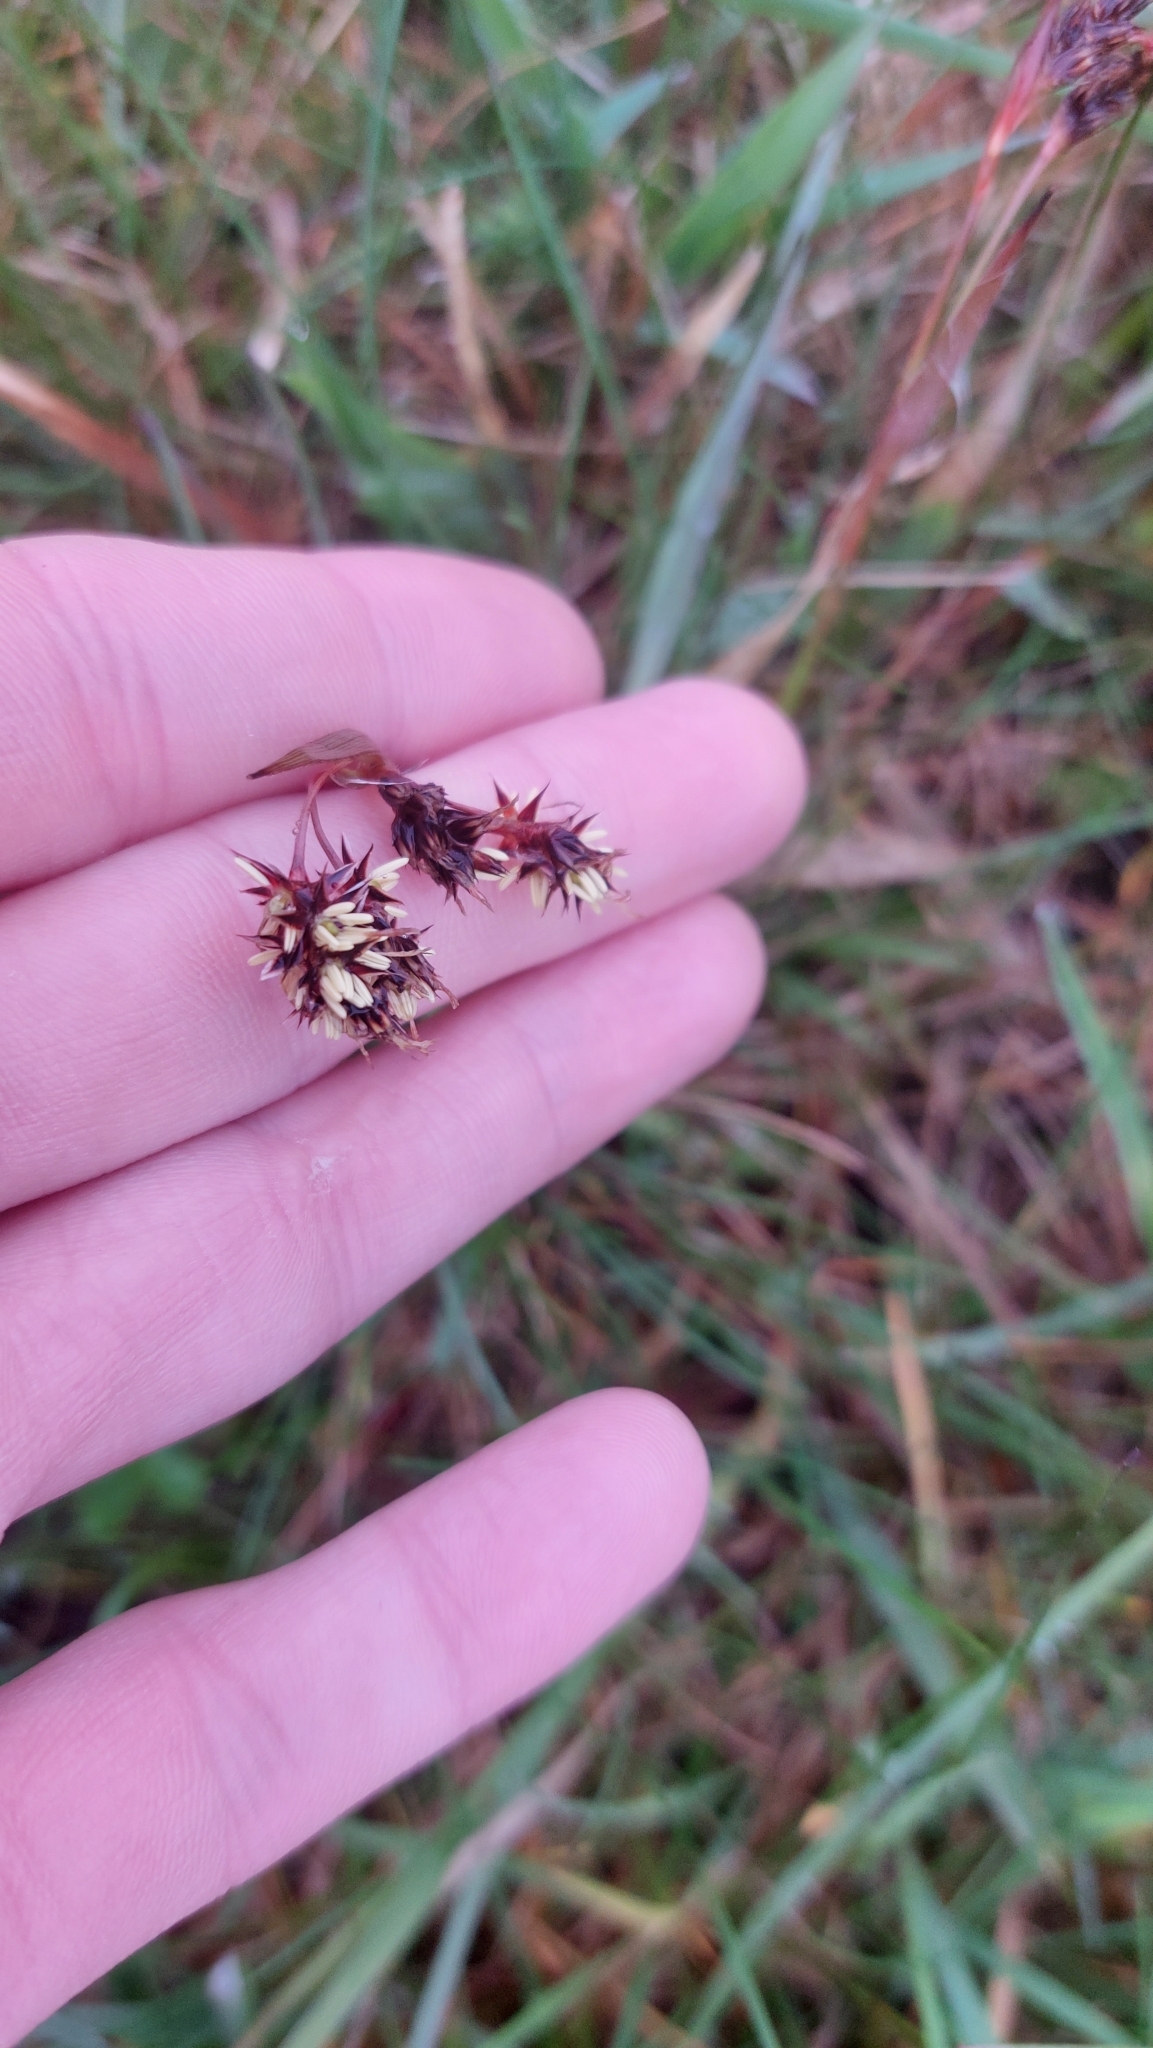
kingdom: Plantae
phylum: Tracheophyta
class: Liliopsida
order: Poales
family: Juncaceae
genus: Luzula
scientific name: Luzula campestris
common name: Field wood-rush
